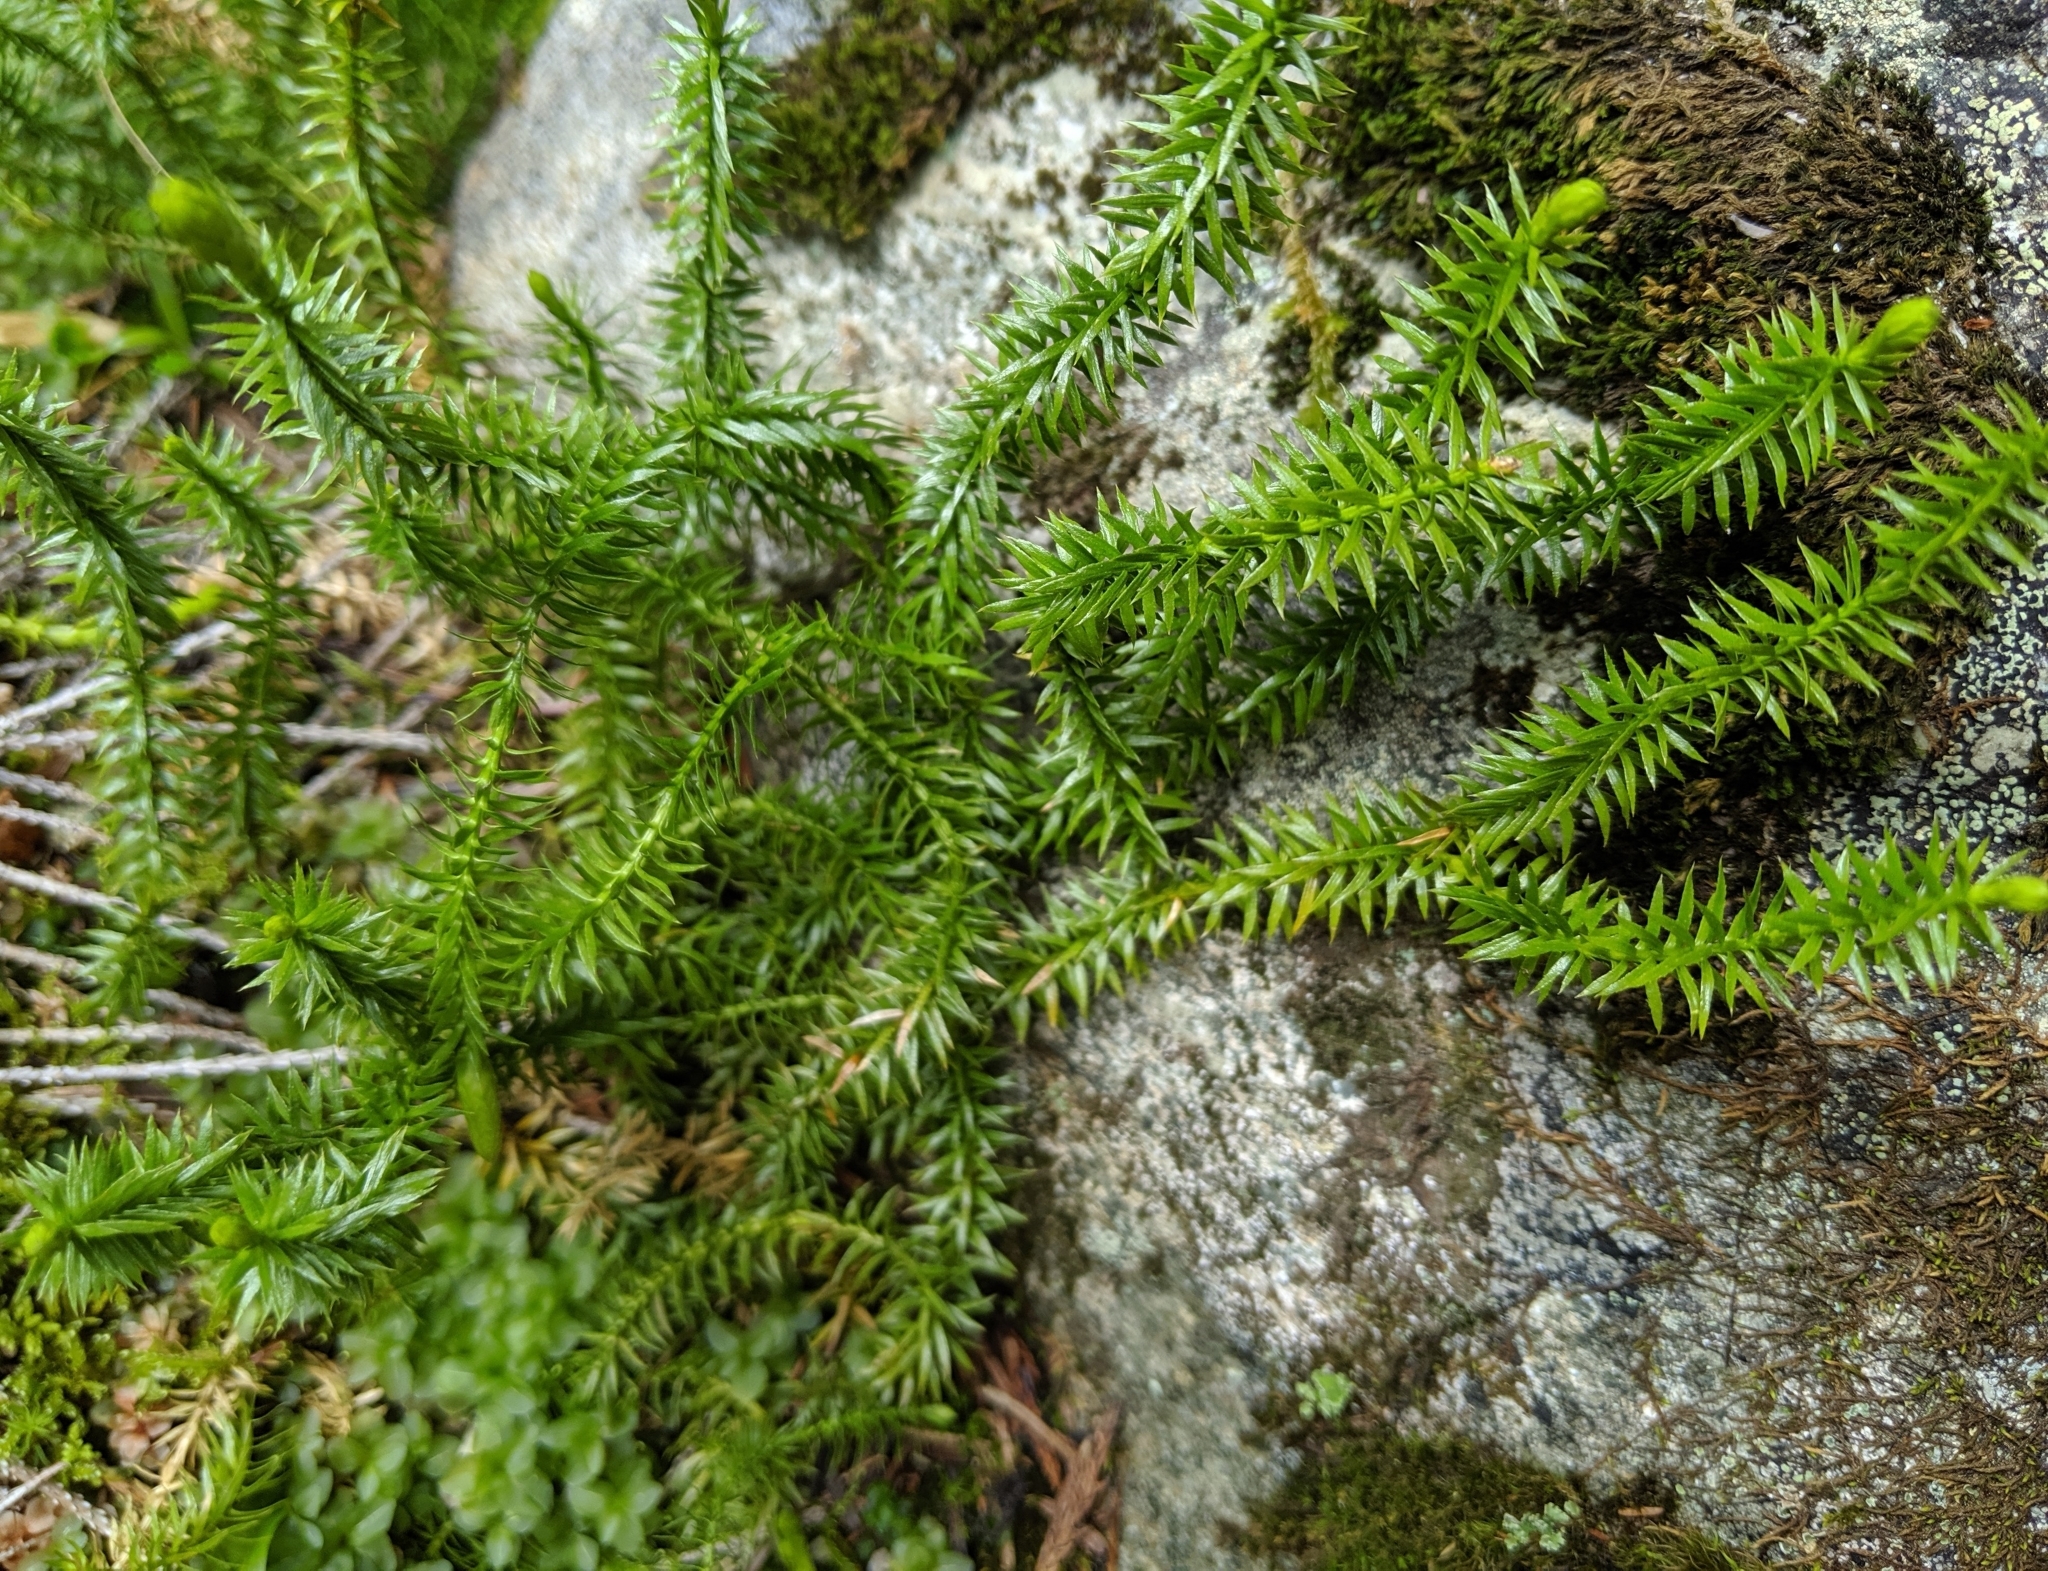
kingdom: Plantae
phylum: Tracheophyta
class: Lycopodiopsida
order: Lycopodiales
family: Lycopodiaceae
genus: Spinulum
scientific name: Spinulum annotinum
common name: Interrupted club-moss
